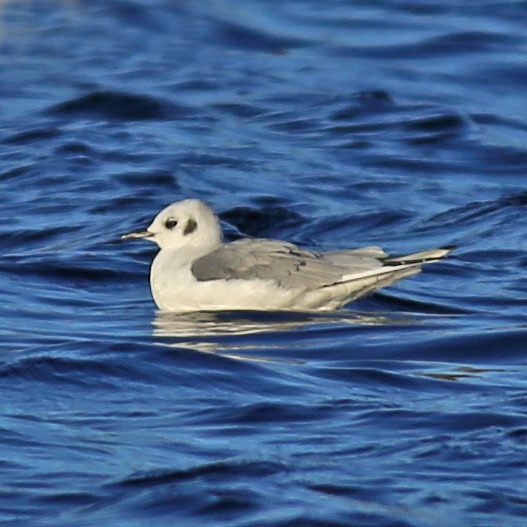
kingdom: Animalia
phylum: Chordata
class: Aves
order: Charadriiformes
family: Laridae
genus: Chroicocephalus
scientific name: Chroicocephalus philadelphia
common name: Bonaparte's gull
